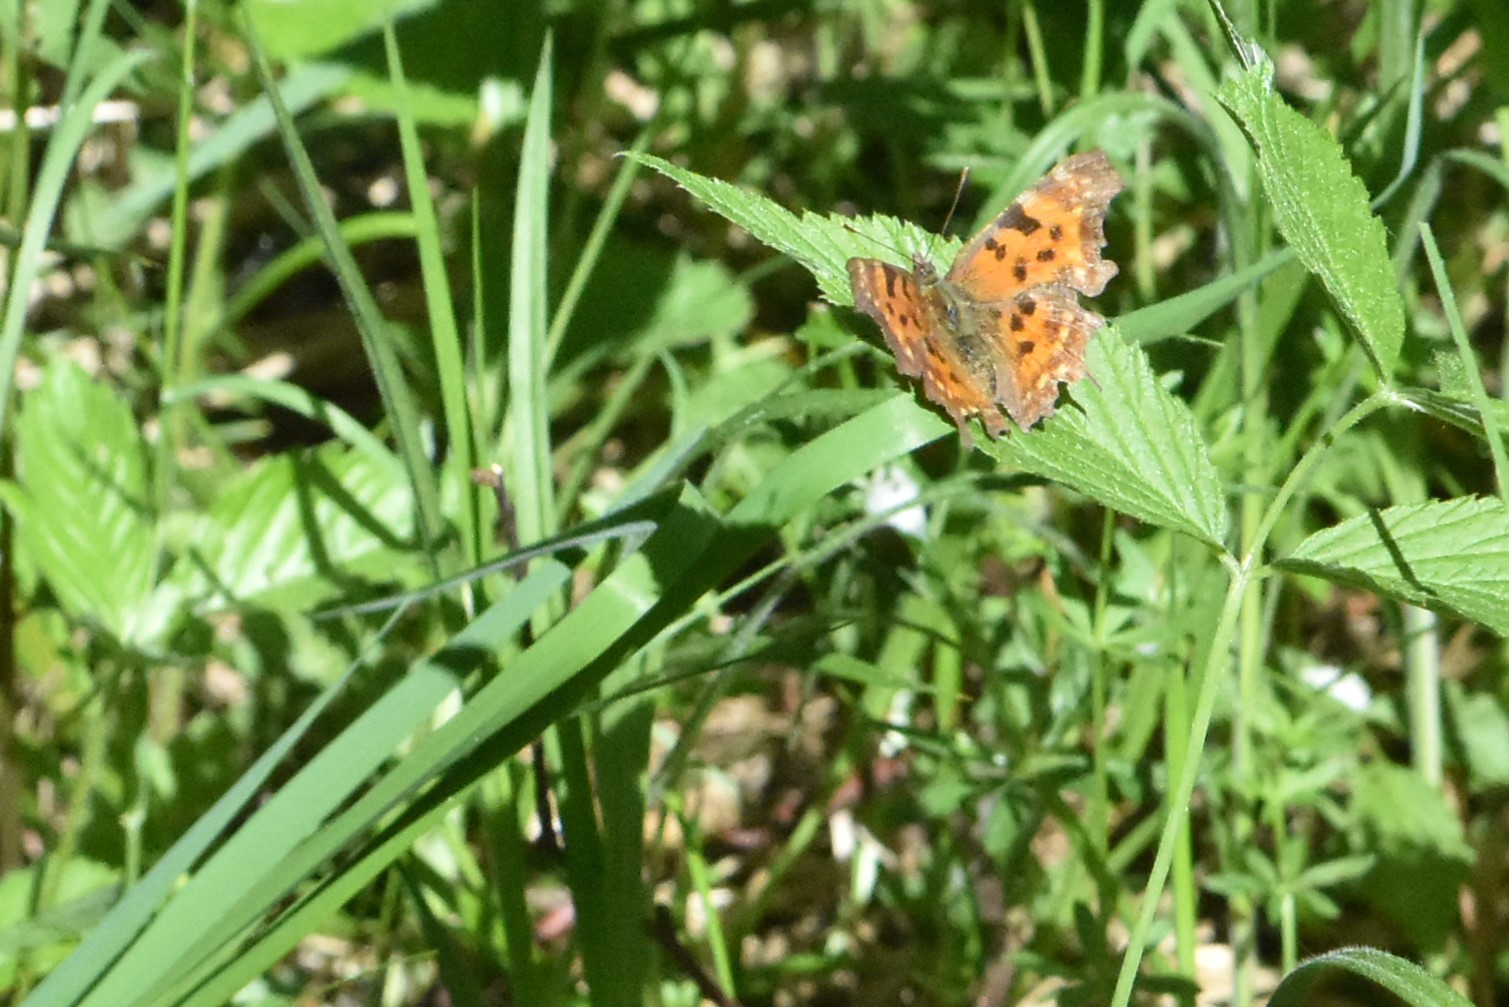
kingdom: Animalia
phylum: Arthropoda
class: Insecta
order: Lepidoptera
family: Nymphalidae
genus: Polygonia
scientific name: Polygonia c-album
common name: Comma
